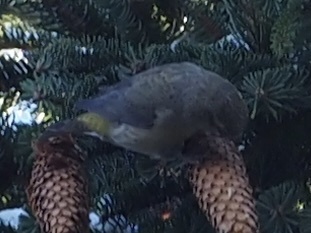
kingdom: Animalia
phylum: Chordata
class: Aves
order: Passeriformes
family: Fringillidae
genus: Loxia
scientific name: Loxia curvirostra
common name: Red crossbill
